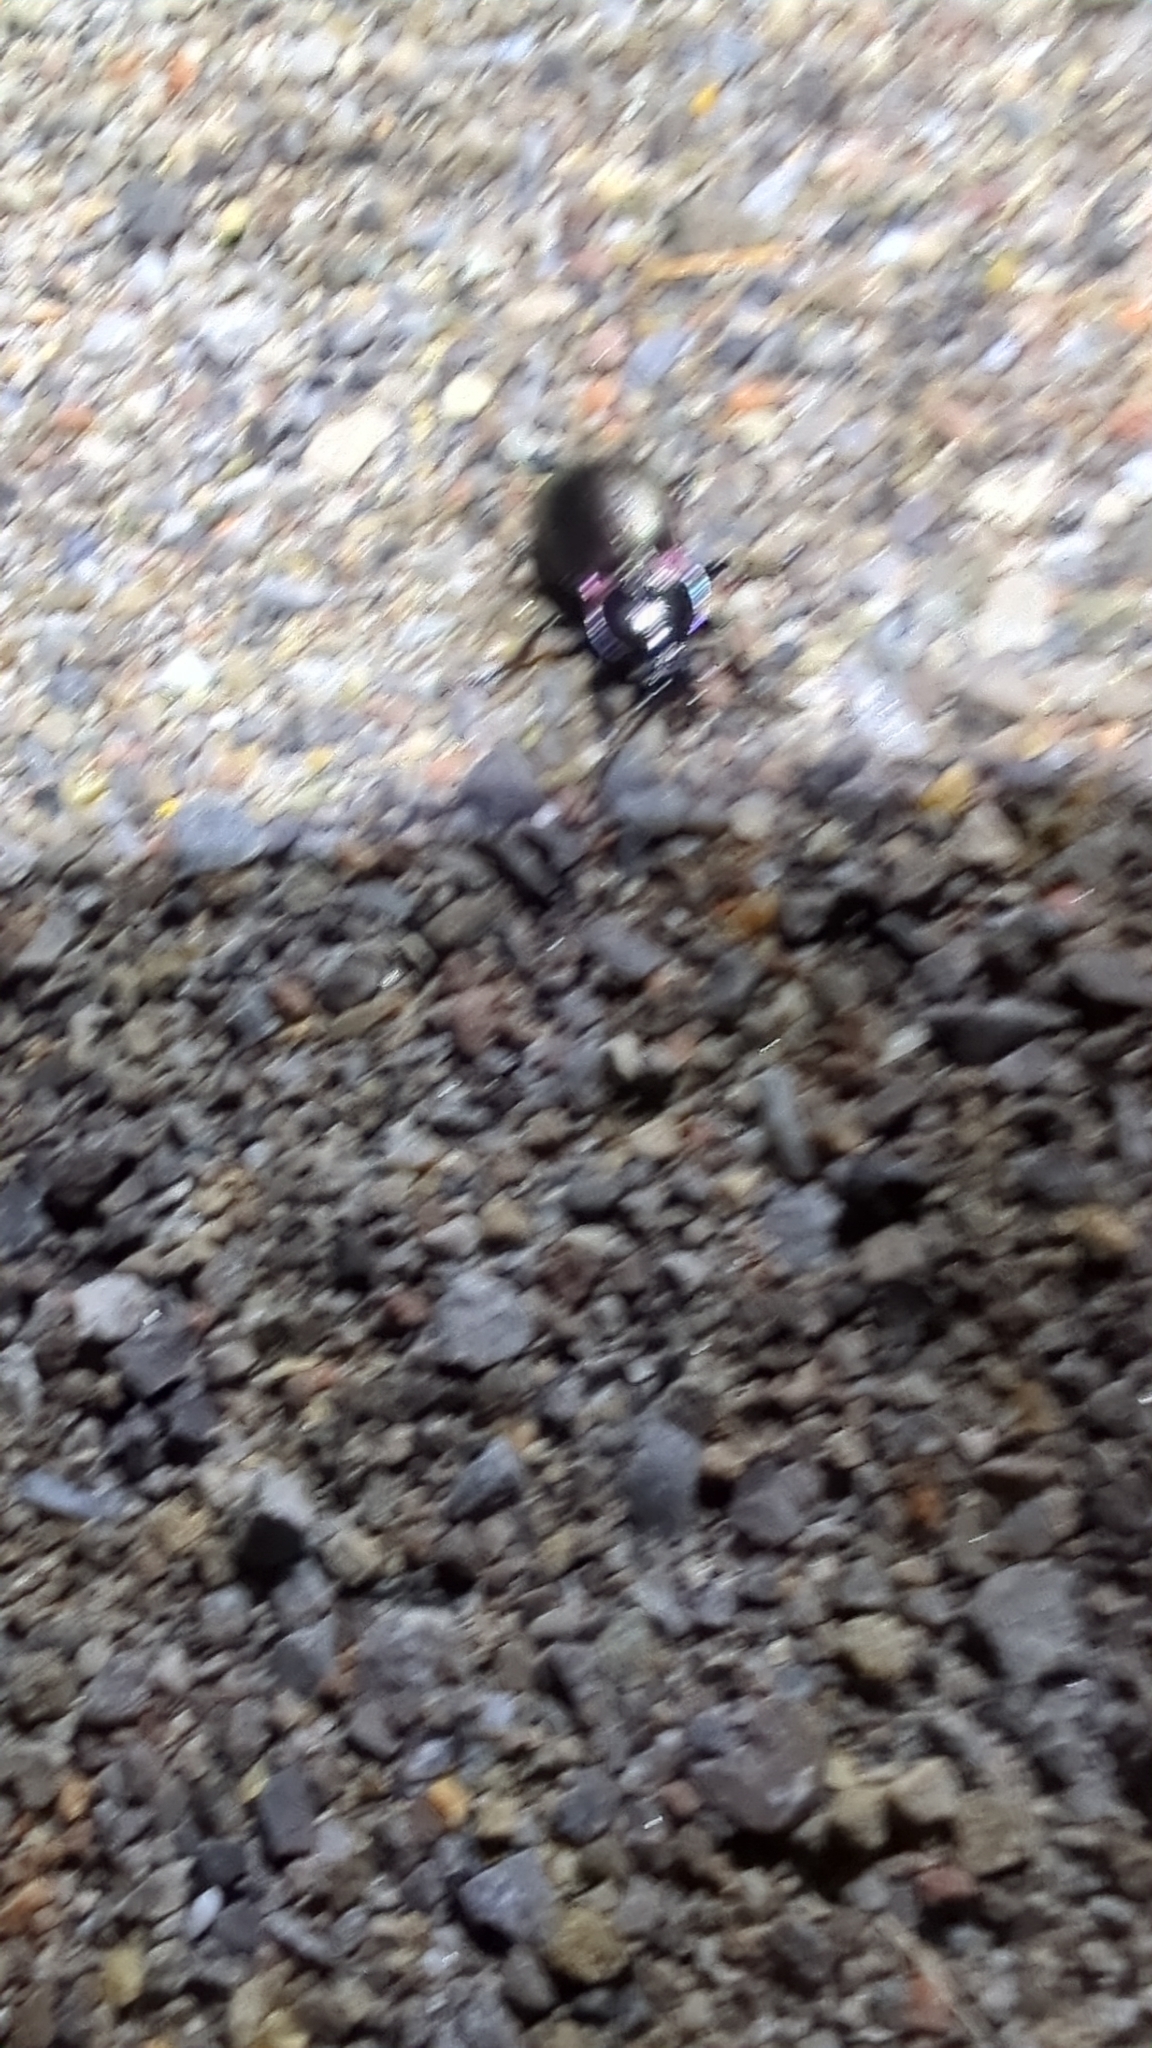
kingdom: Animalia
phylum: Arthropoda
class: Insecta
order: Coleoptera
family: Carabidae
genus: Carabus
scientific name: Carabus nemoralis
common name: European ground beetle
